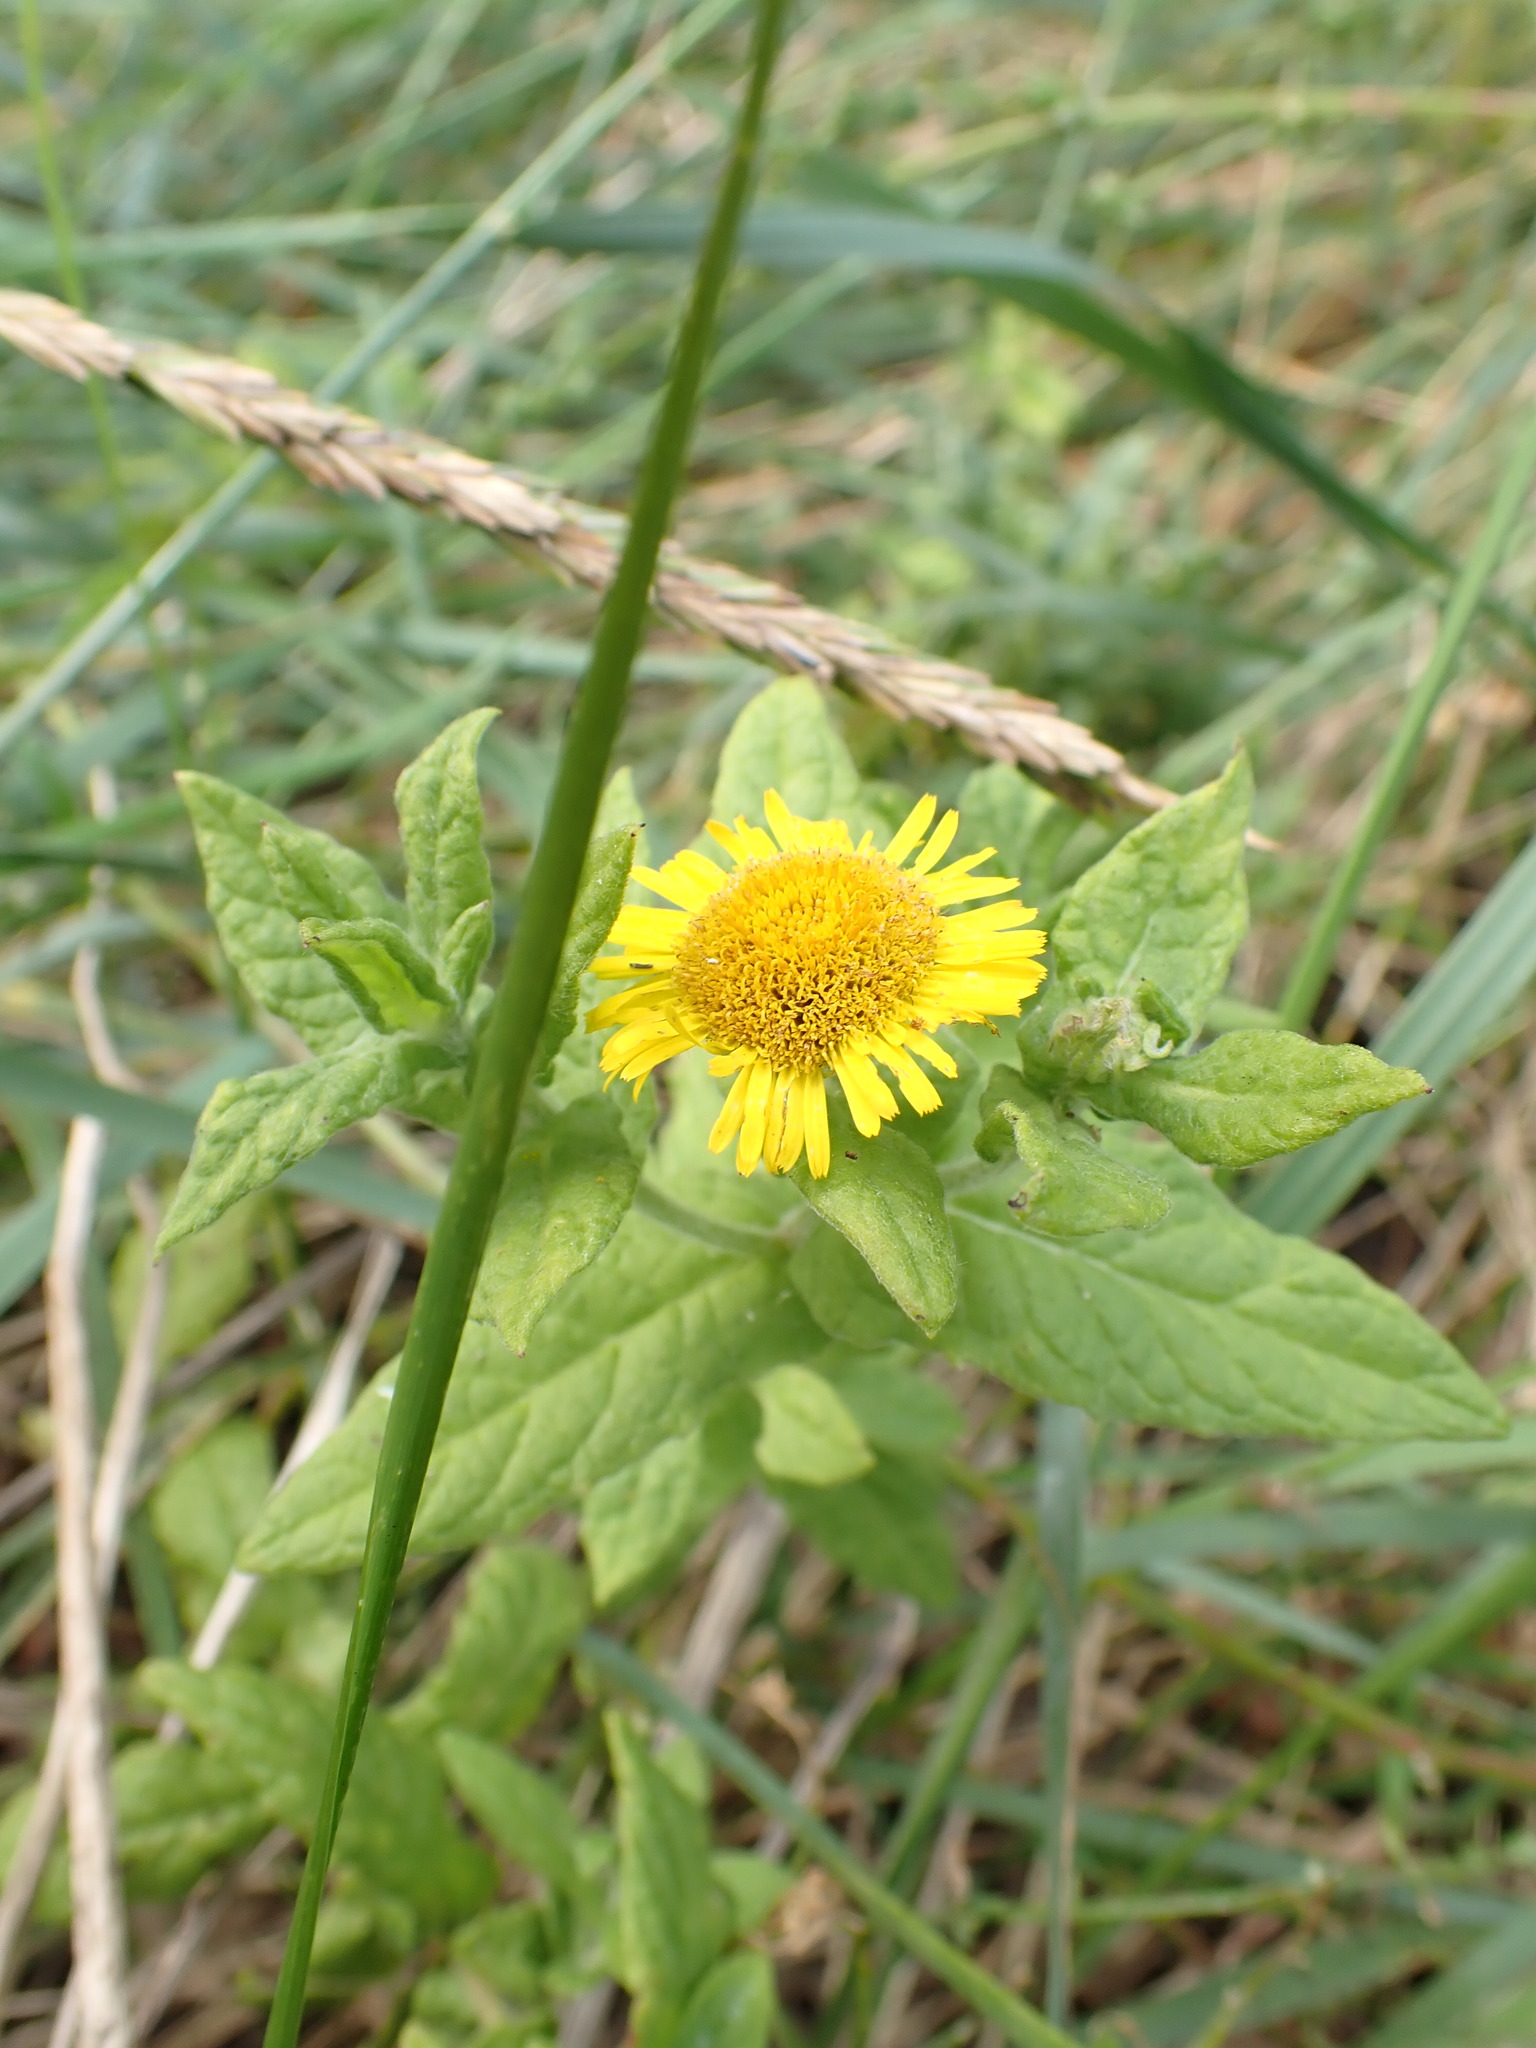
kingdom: Plantae
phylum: Tracheophyta
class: Magnoliopsida
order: Asterales
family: Asteraceae
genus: Pulicaria
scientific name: Pulicaria dysenterica
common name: Common fleabane
